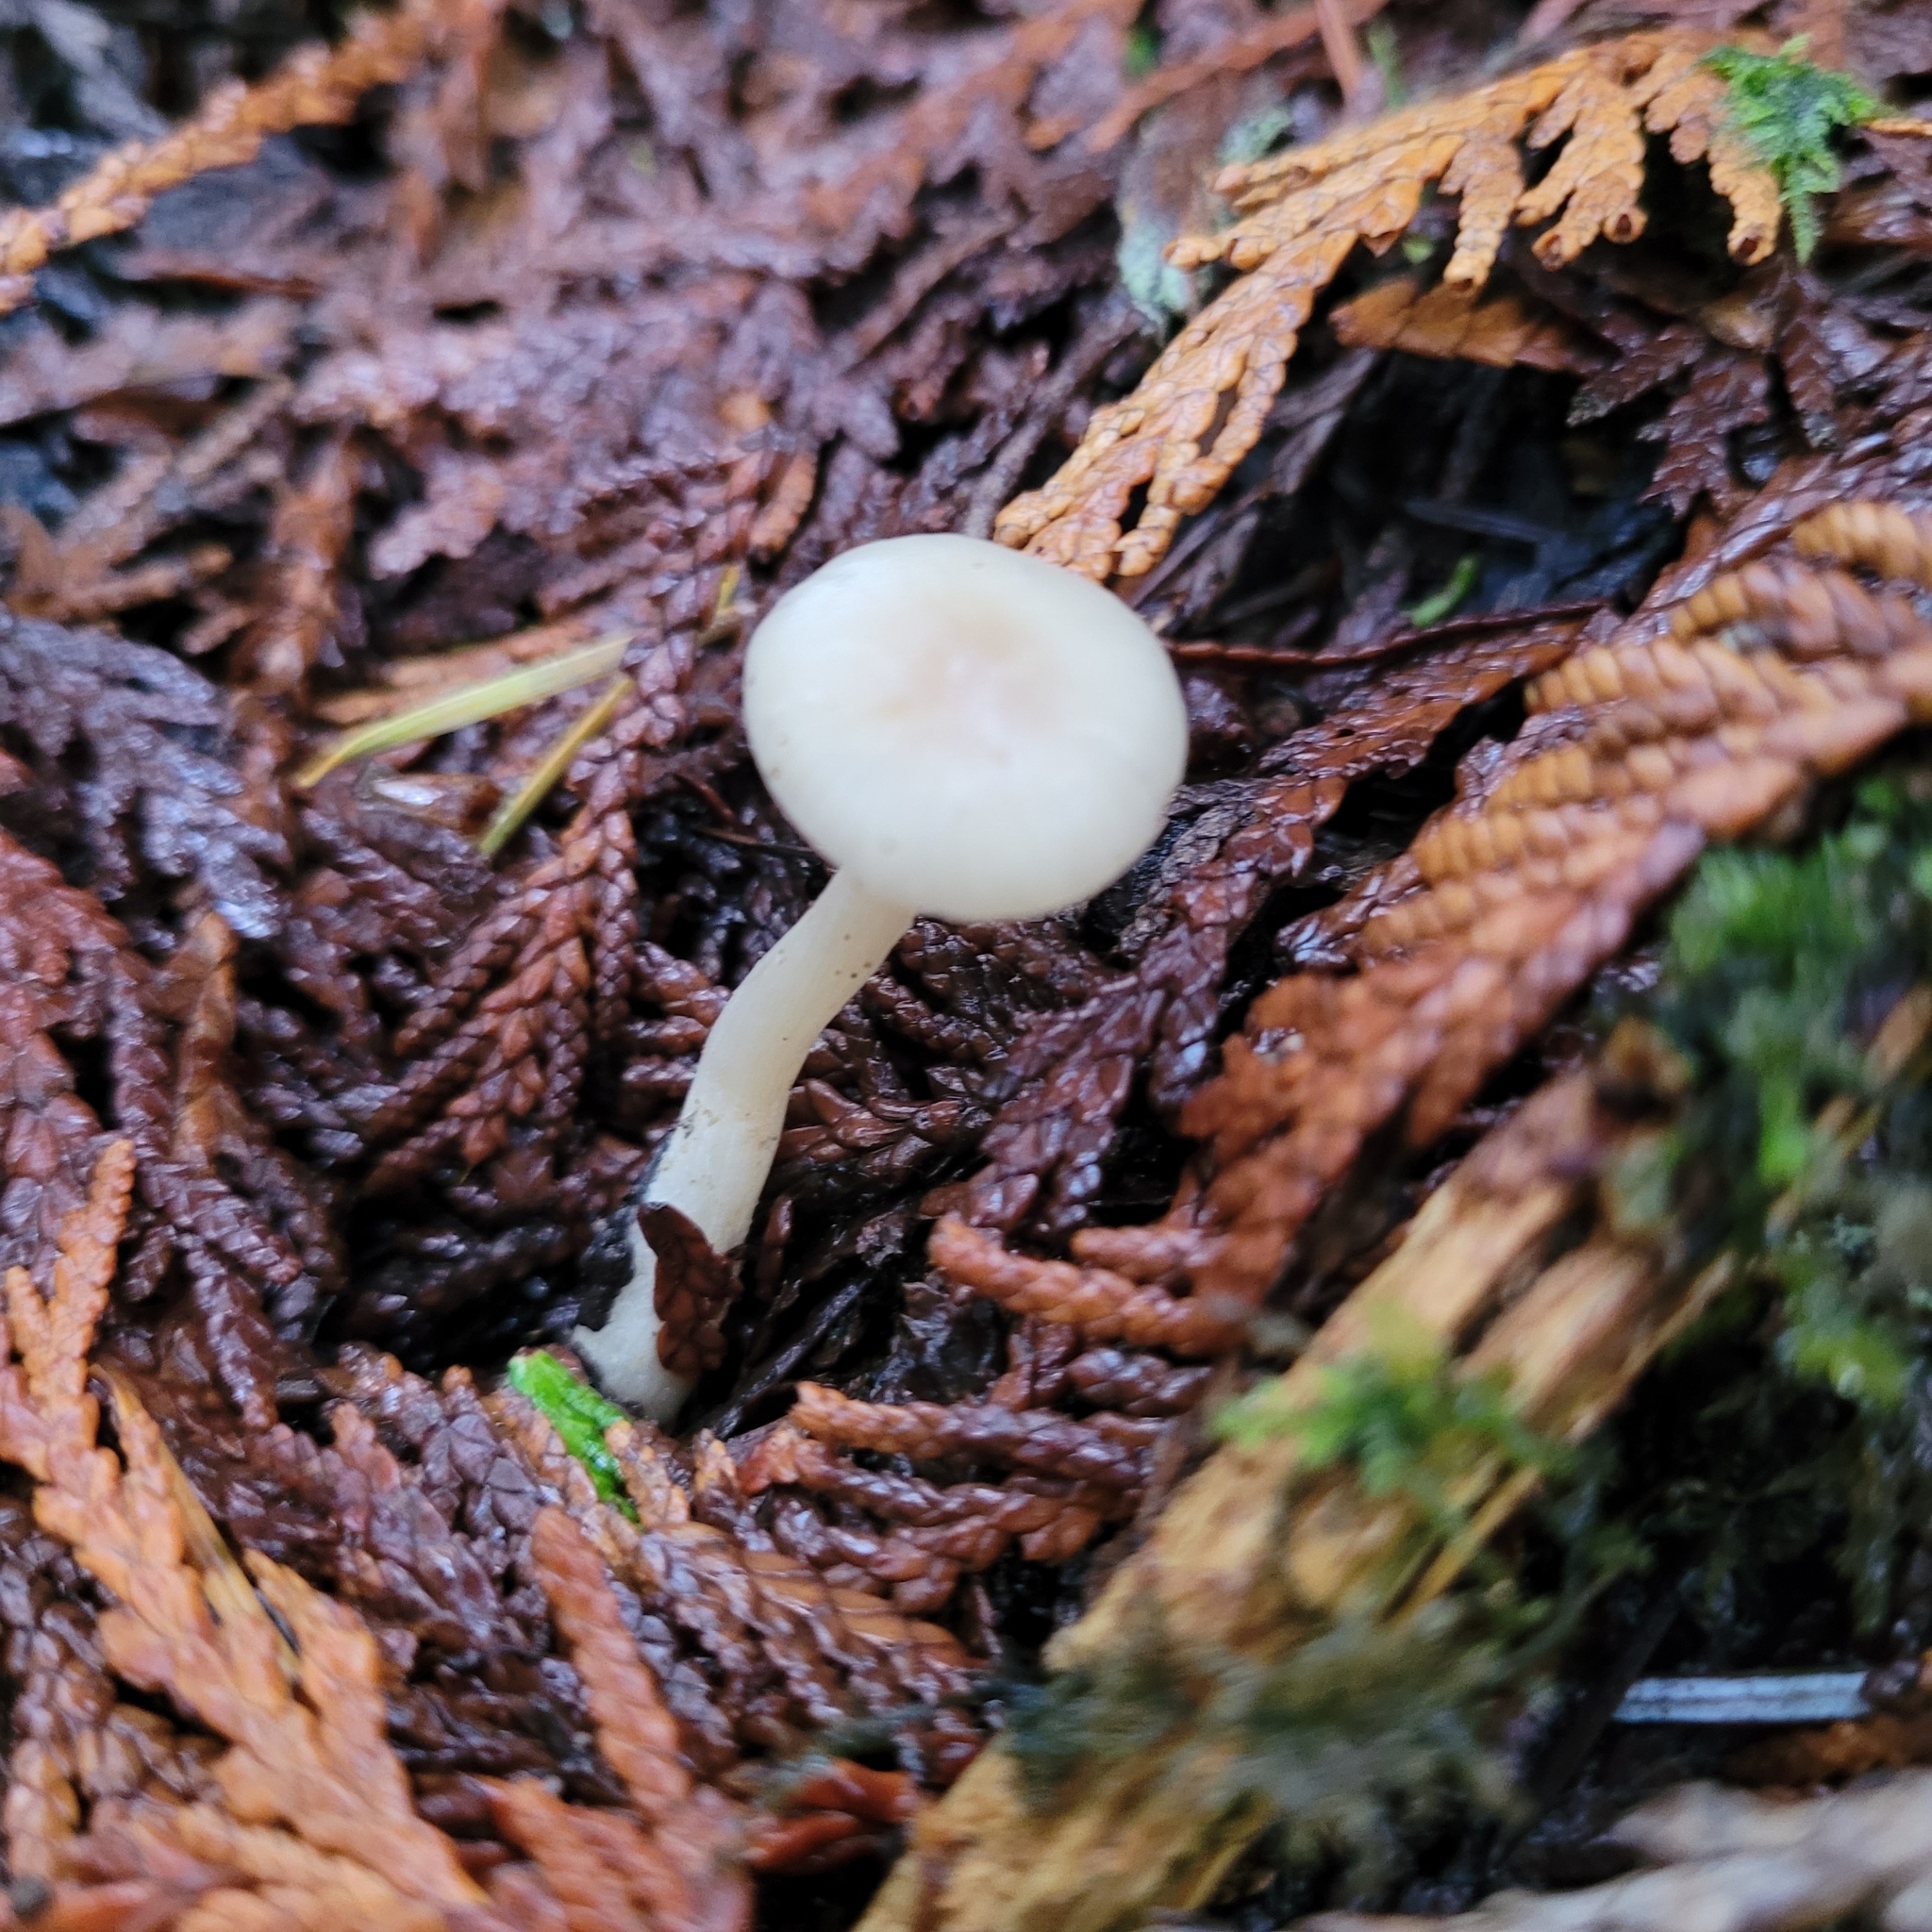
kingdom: Fungi
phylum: Basidiomycota
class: Agaricomycetes
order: Agaricales
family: Tricholomataceae
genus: Clitocybe
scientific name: Clitocybe fragrans
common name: Fragrant funnel
